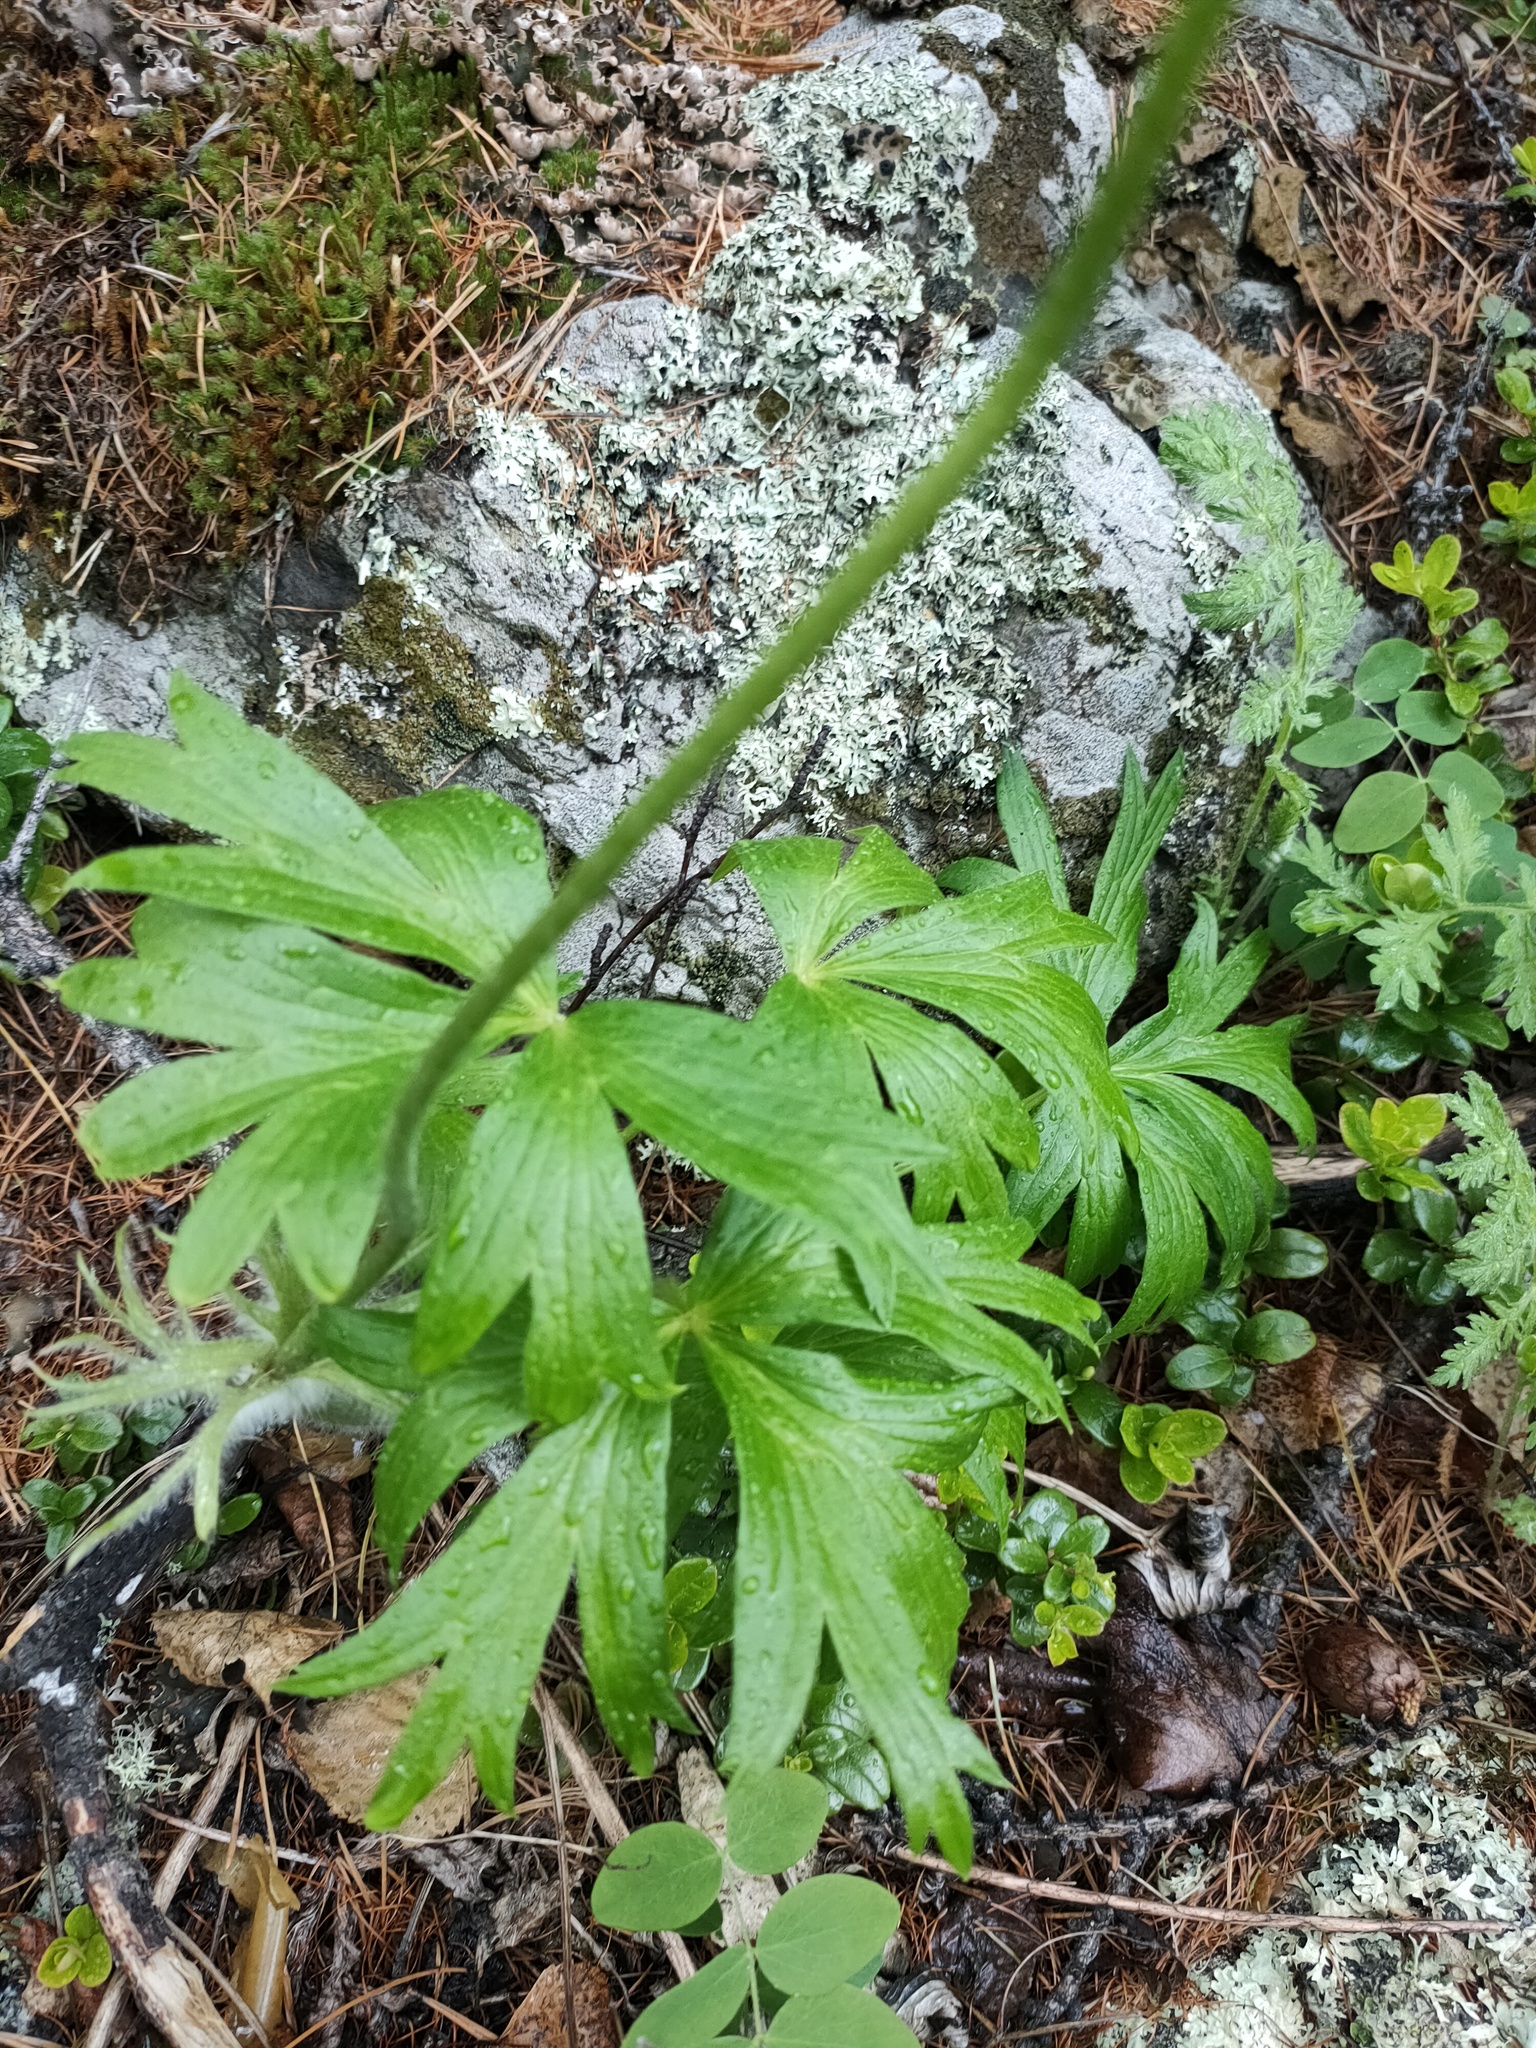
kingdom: Plantae
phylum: Tracheophyta
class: Magnoliopsida
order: Ranunculales
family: Ranunculaceae
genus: Pulsatilla
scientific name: Pulsatilla patens
